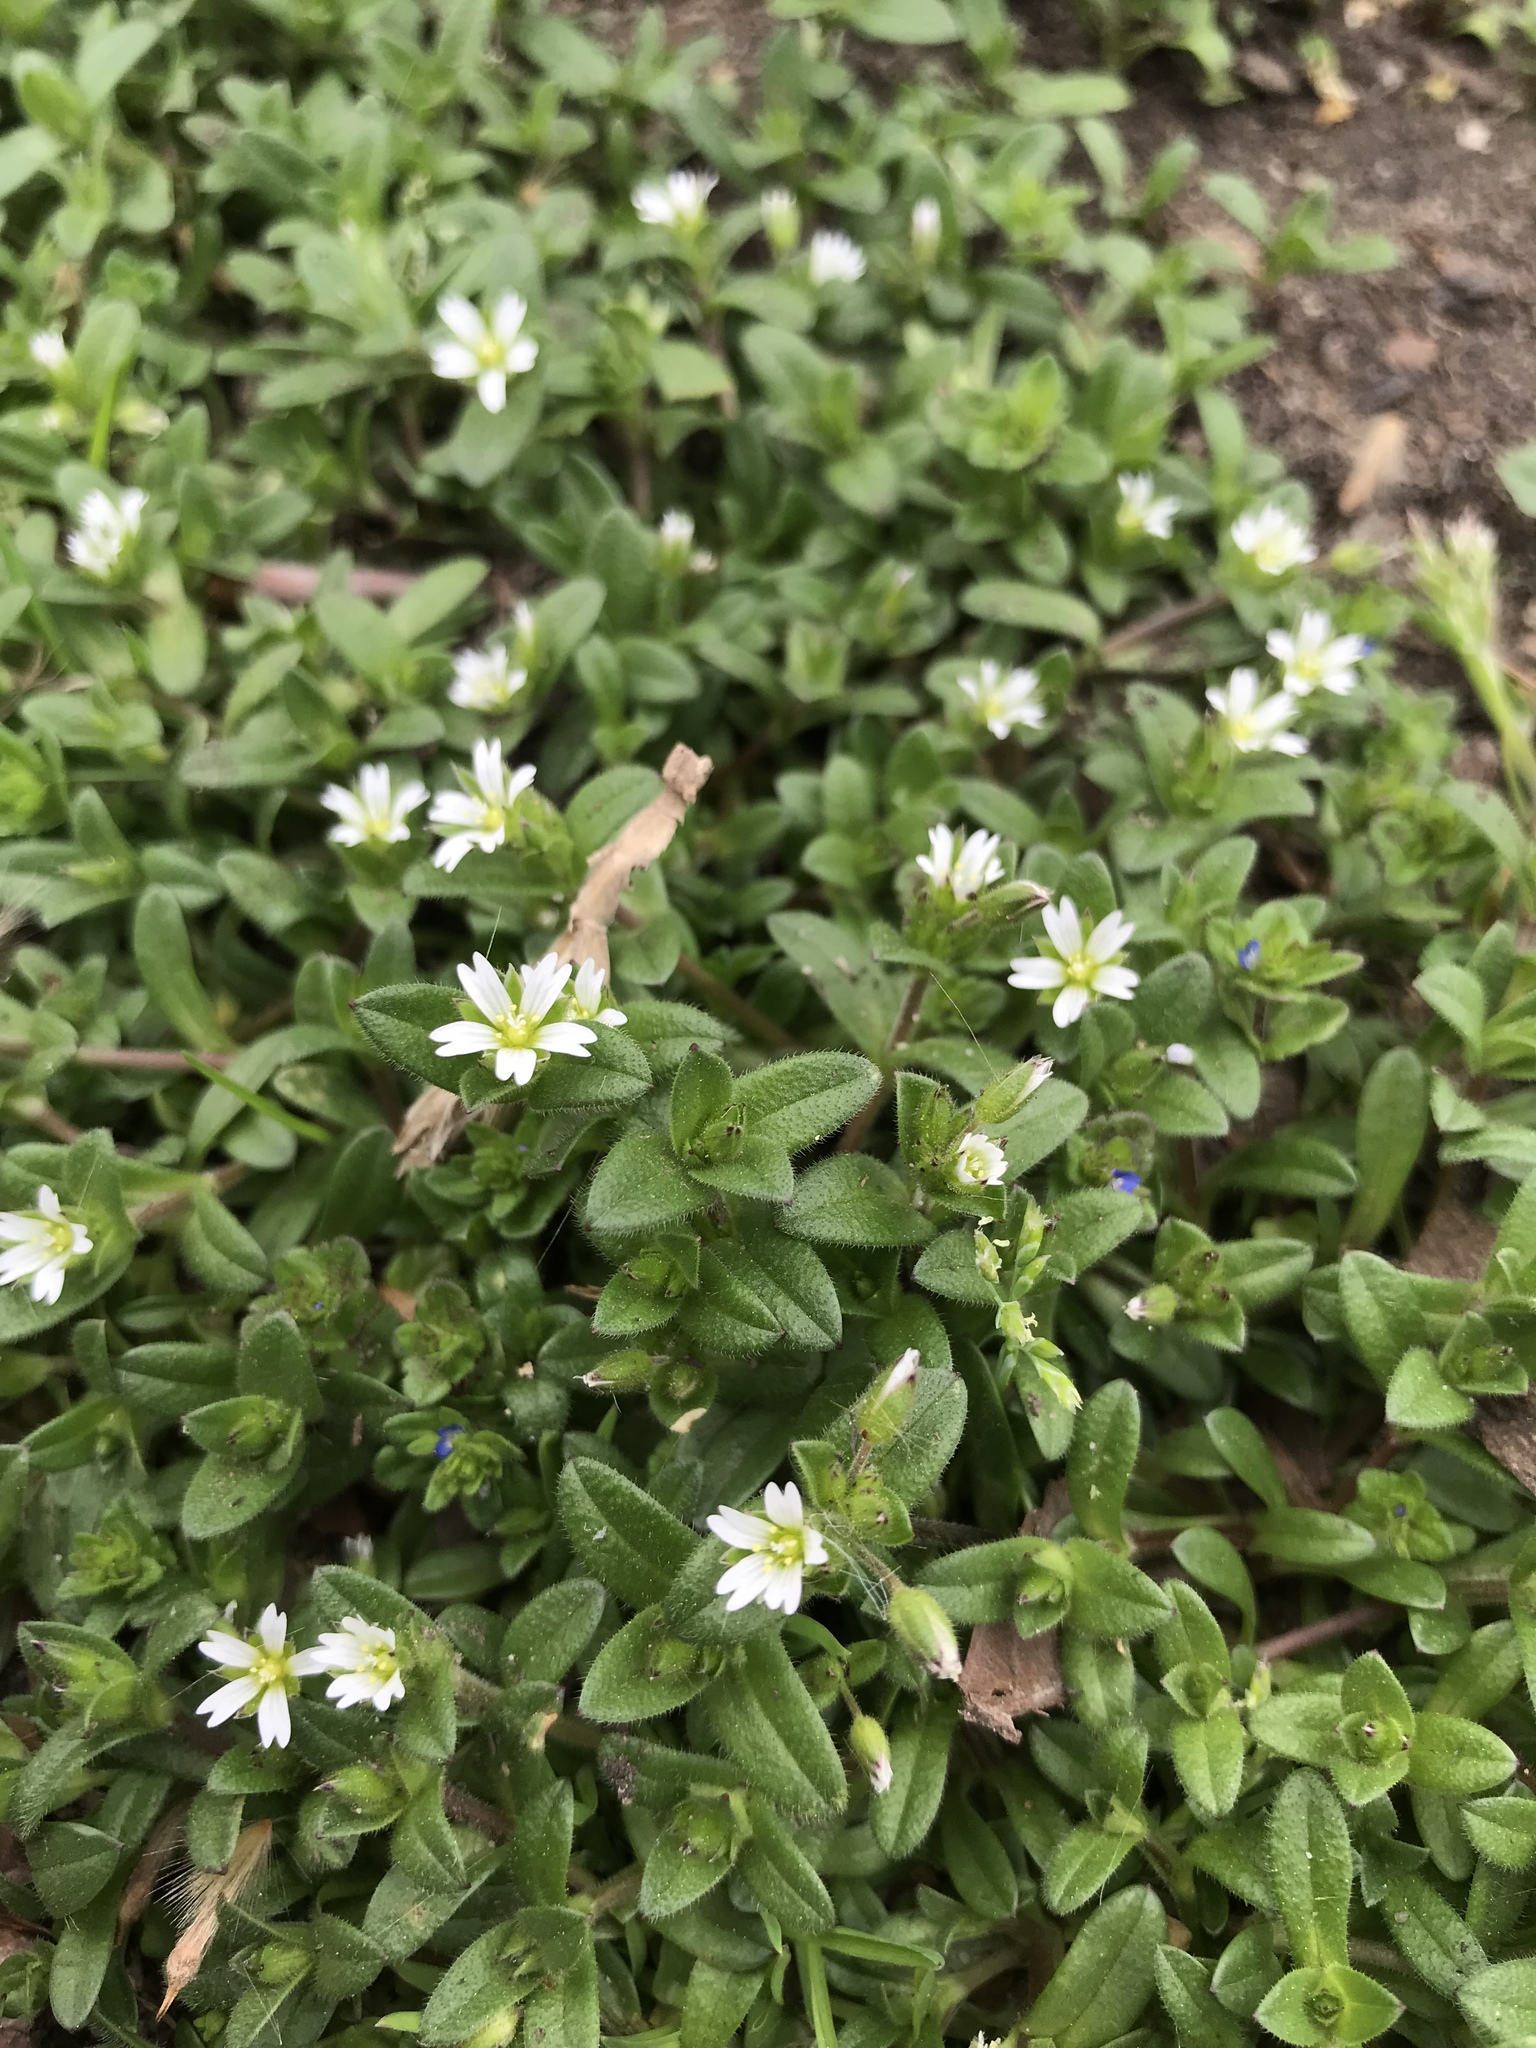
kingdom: Plantae
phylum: Tracheophyta
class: Magnoliopsida
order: Caryophyllales
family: Caryophyllaceae
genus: Cerastium
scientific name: Cerastium fontanum
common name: Common mouse-ear
